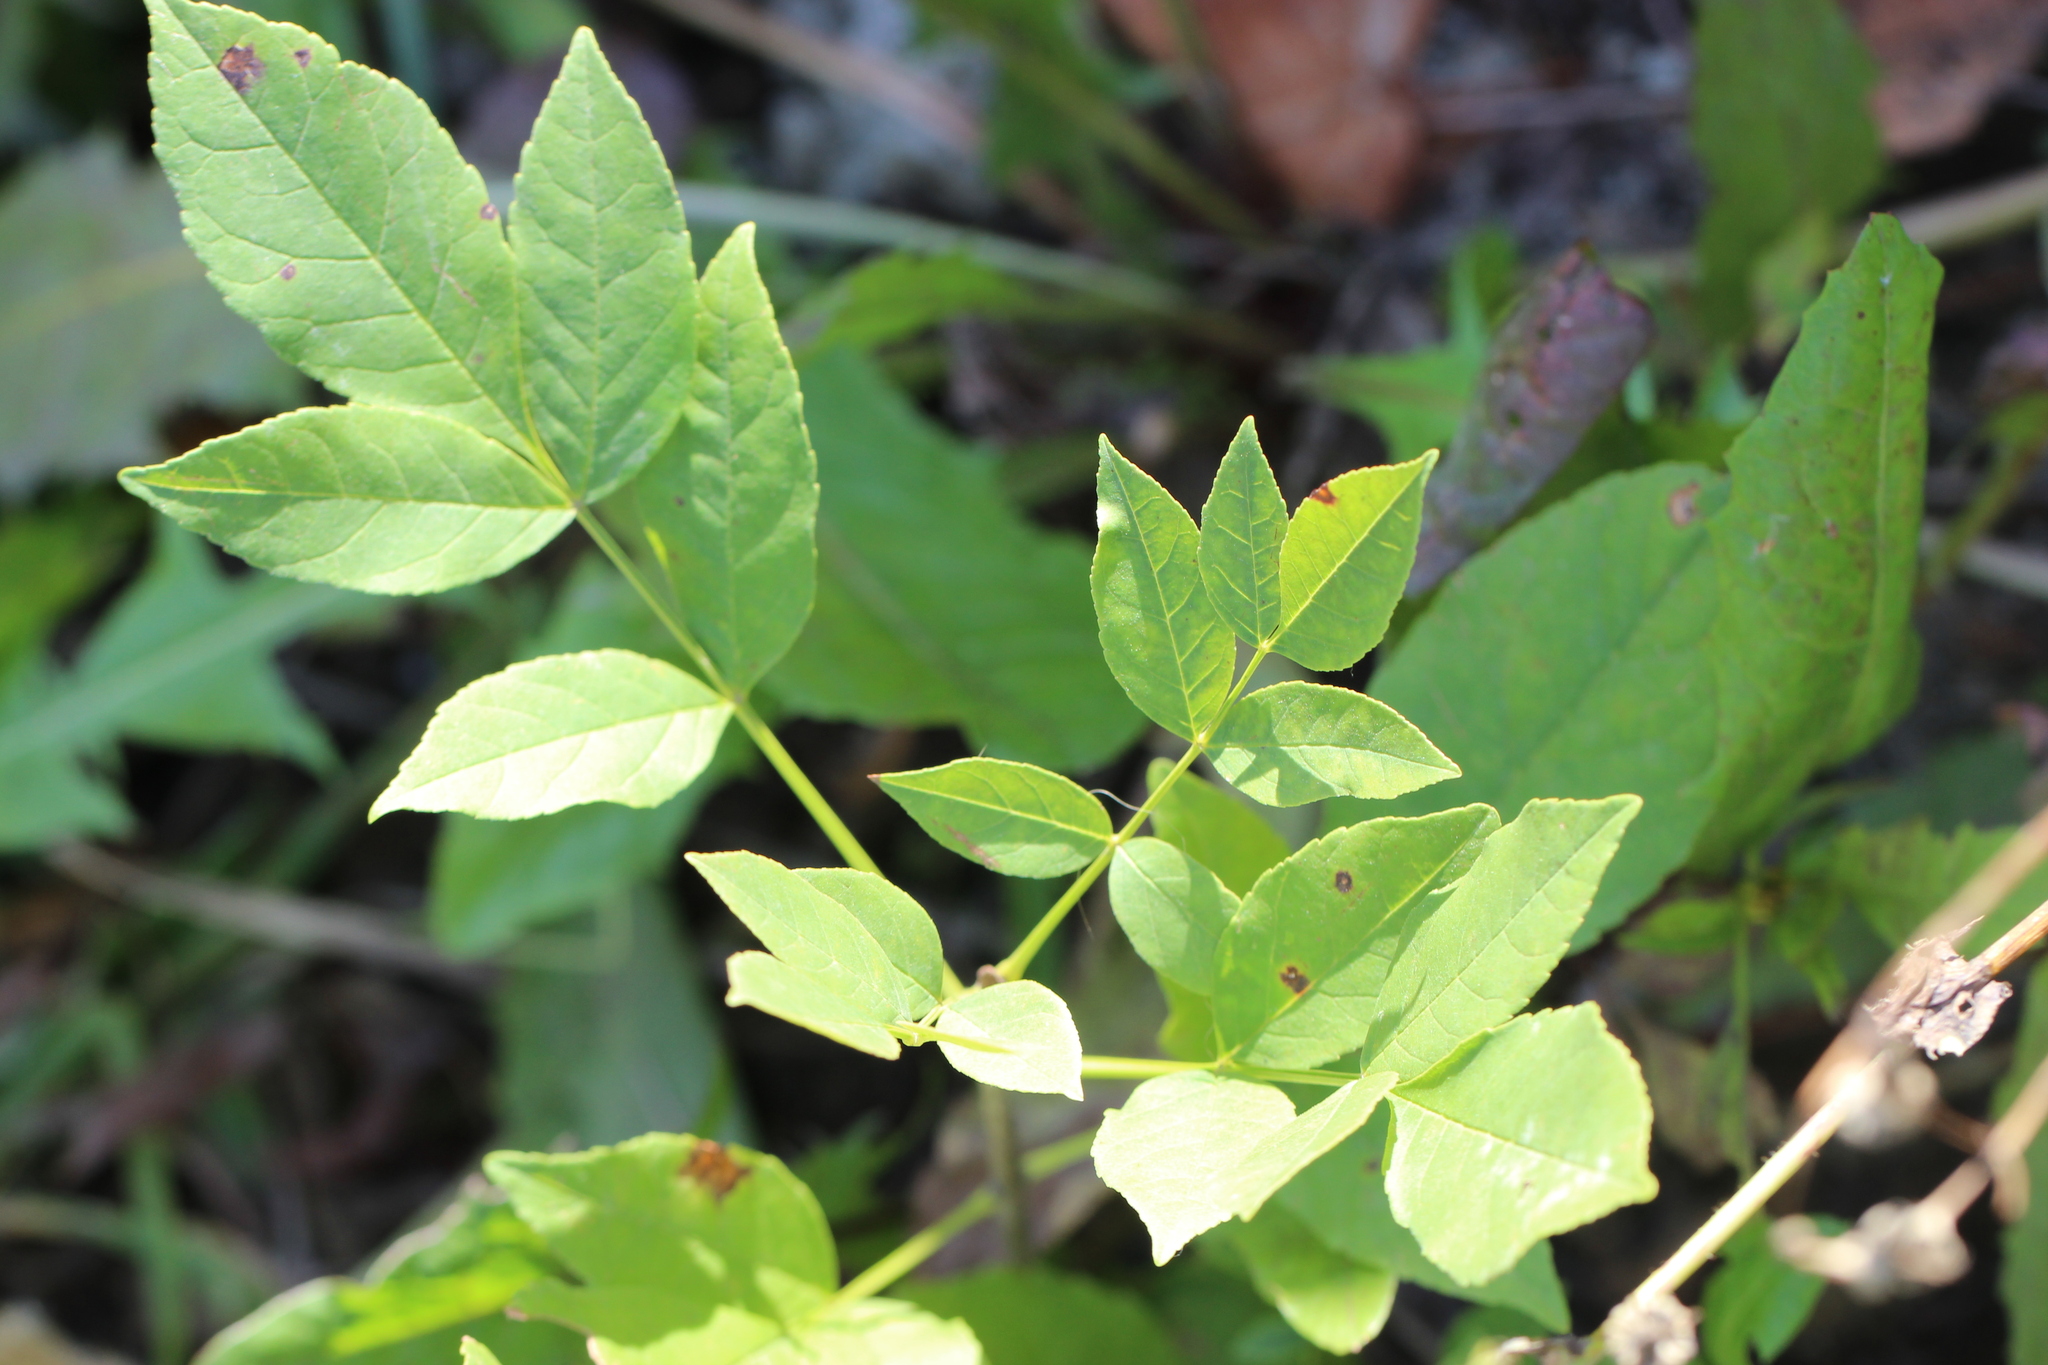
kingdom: Plantae
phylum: Tracheophyta
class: Magnoliopsida
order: Lamiales
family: Oleaceae
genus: Fraxinus
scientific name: Fraxinus pennsylvanica
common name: Green ash
